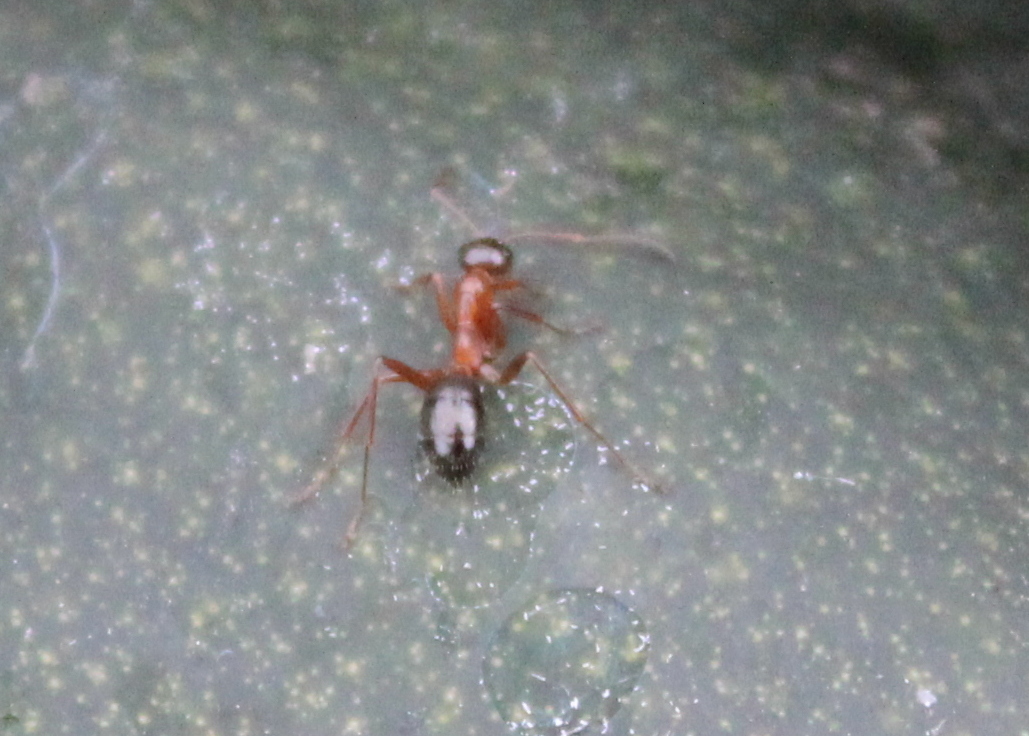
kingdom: Animalia
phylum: Arthropoda
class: Insecta
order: Hymenoptera
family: Formicidae
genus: Formica
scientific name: Formica
